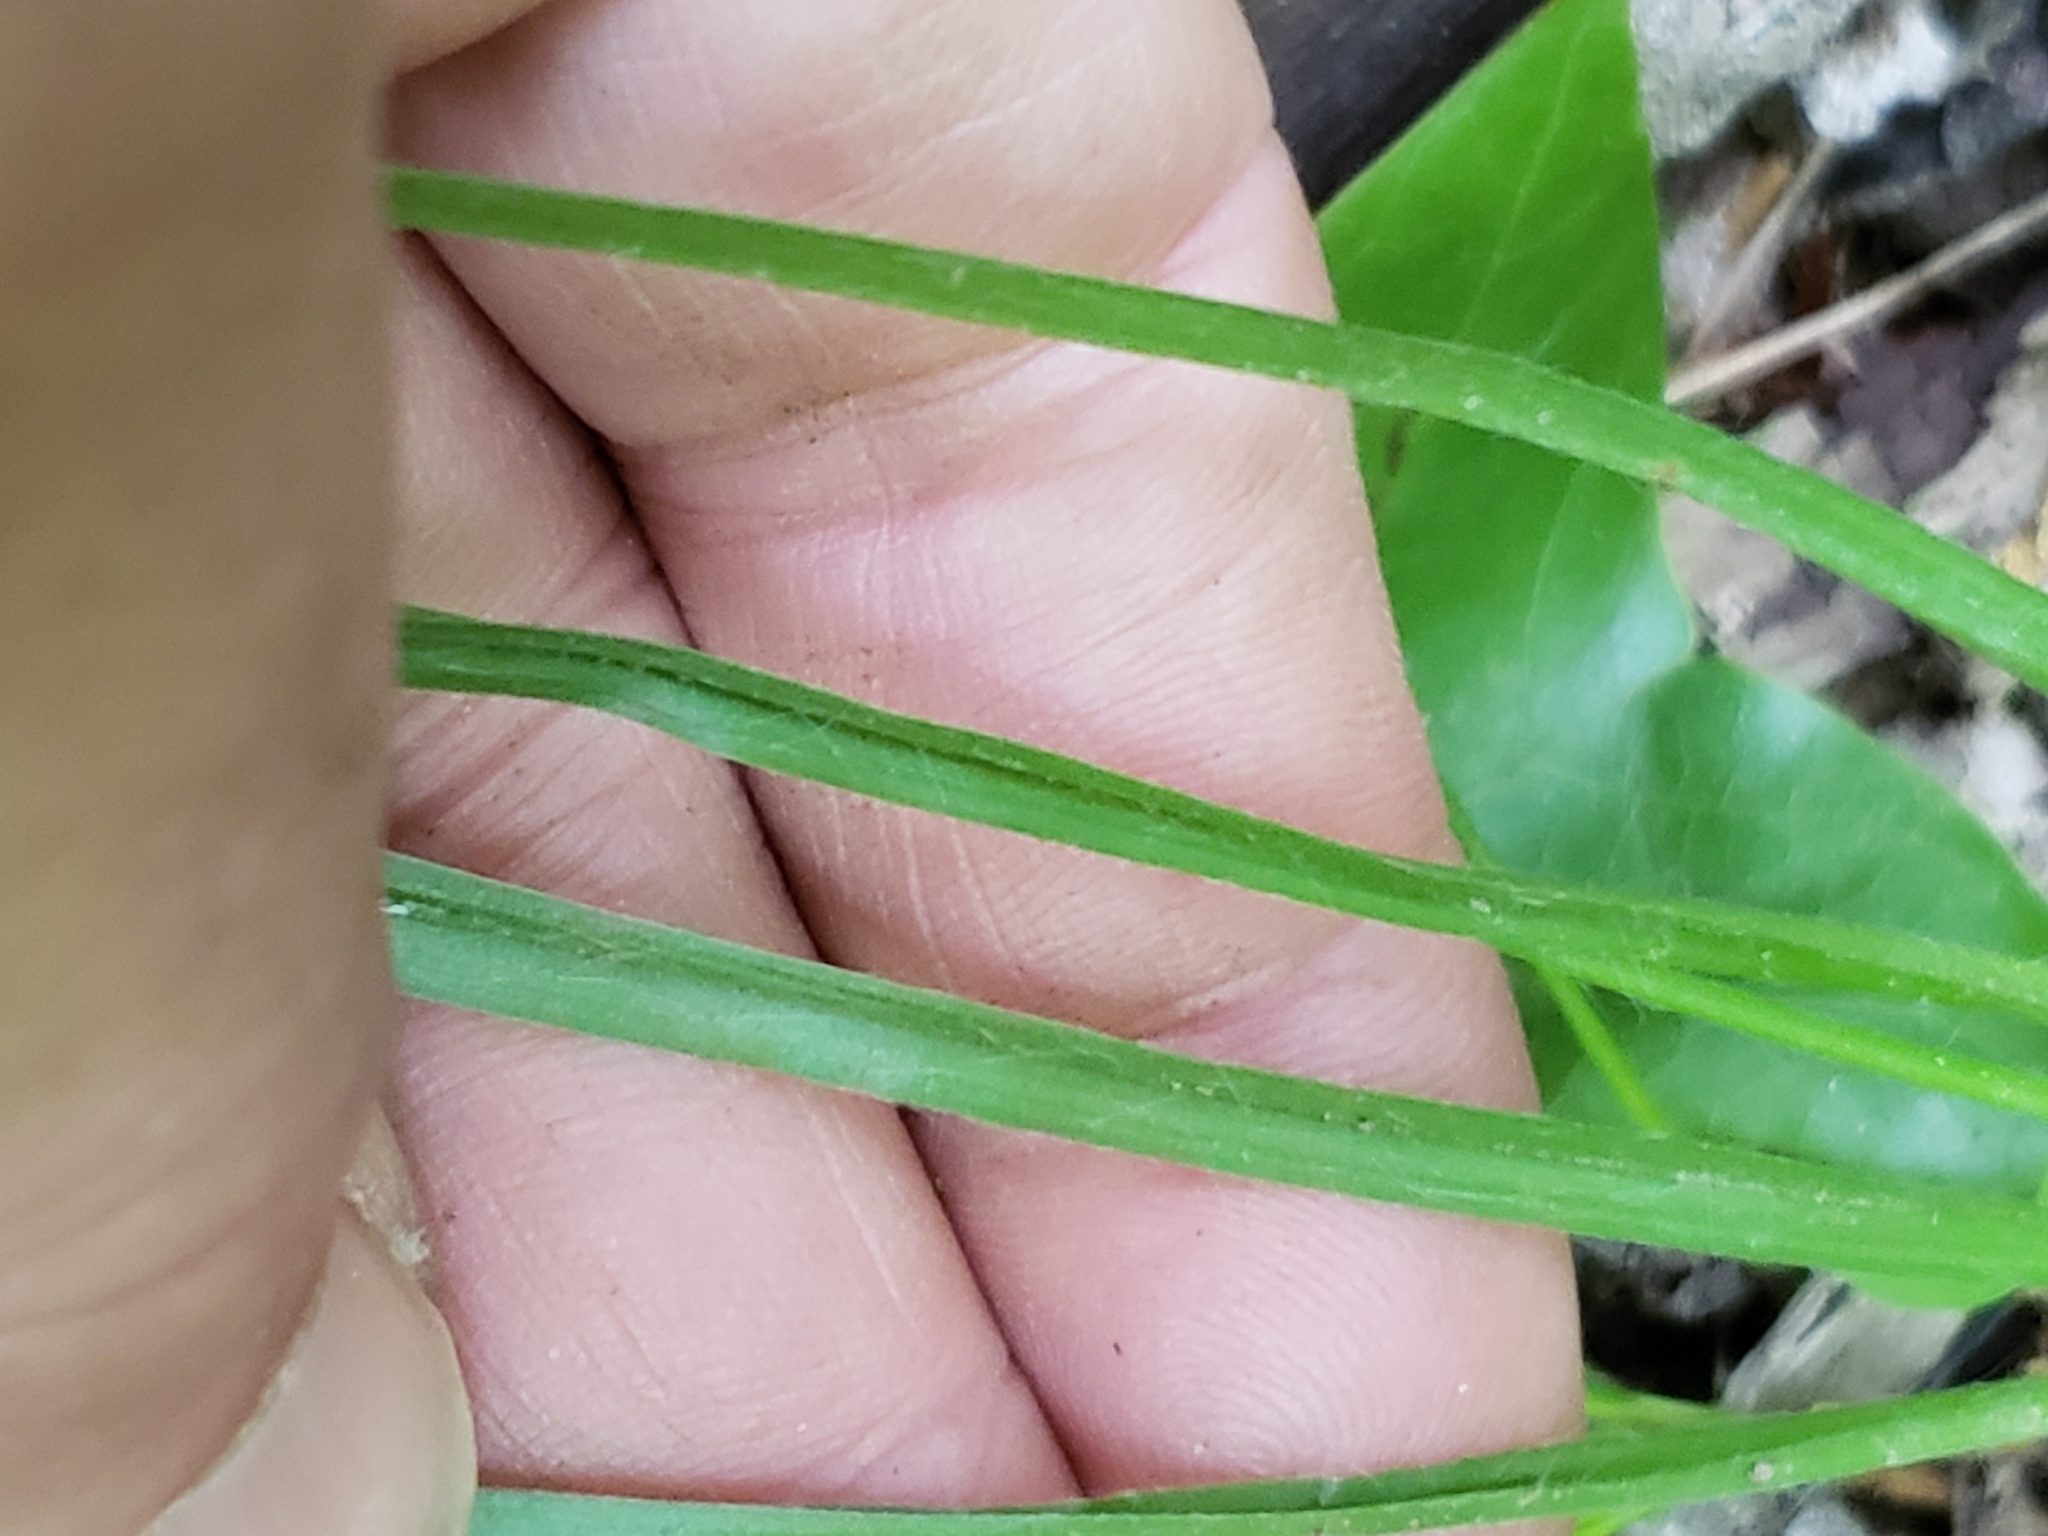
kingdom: Plantae
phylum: Tracheophyta
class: Liliopsida
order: Asparagales
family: Hypoxidaceae
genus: Hypoxis
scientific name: Hypoxis hirsuta
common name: Common goldstar
